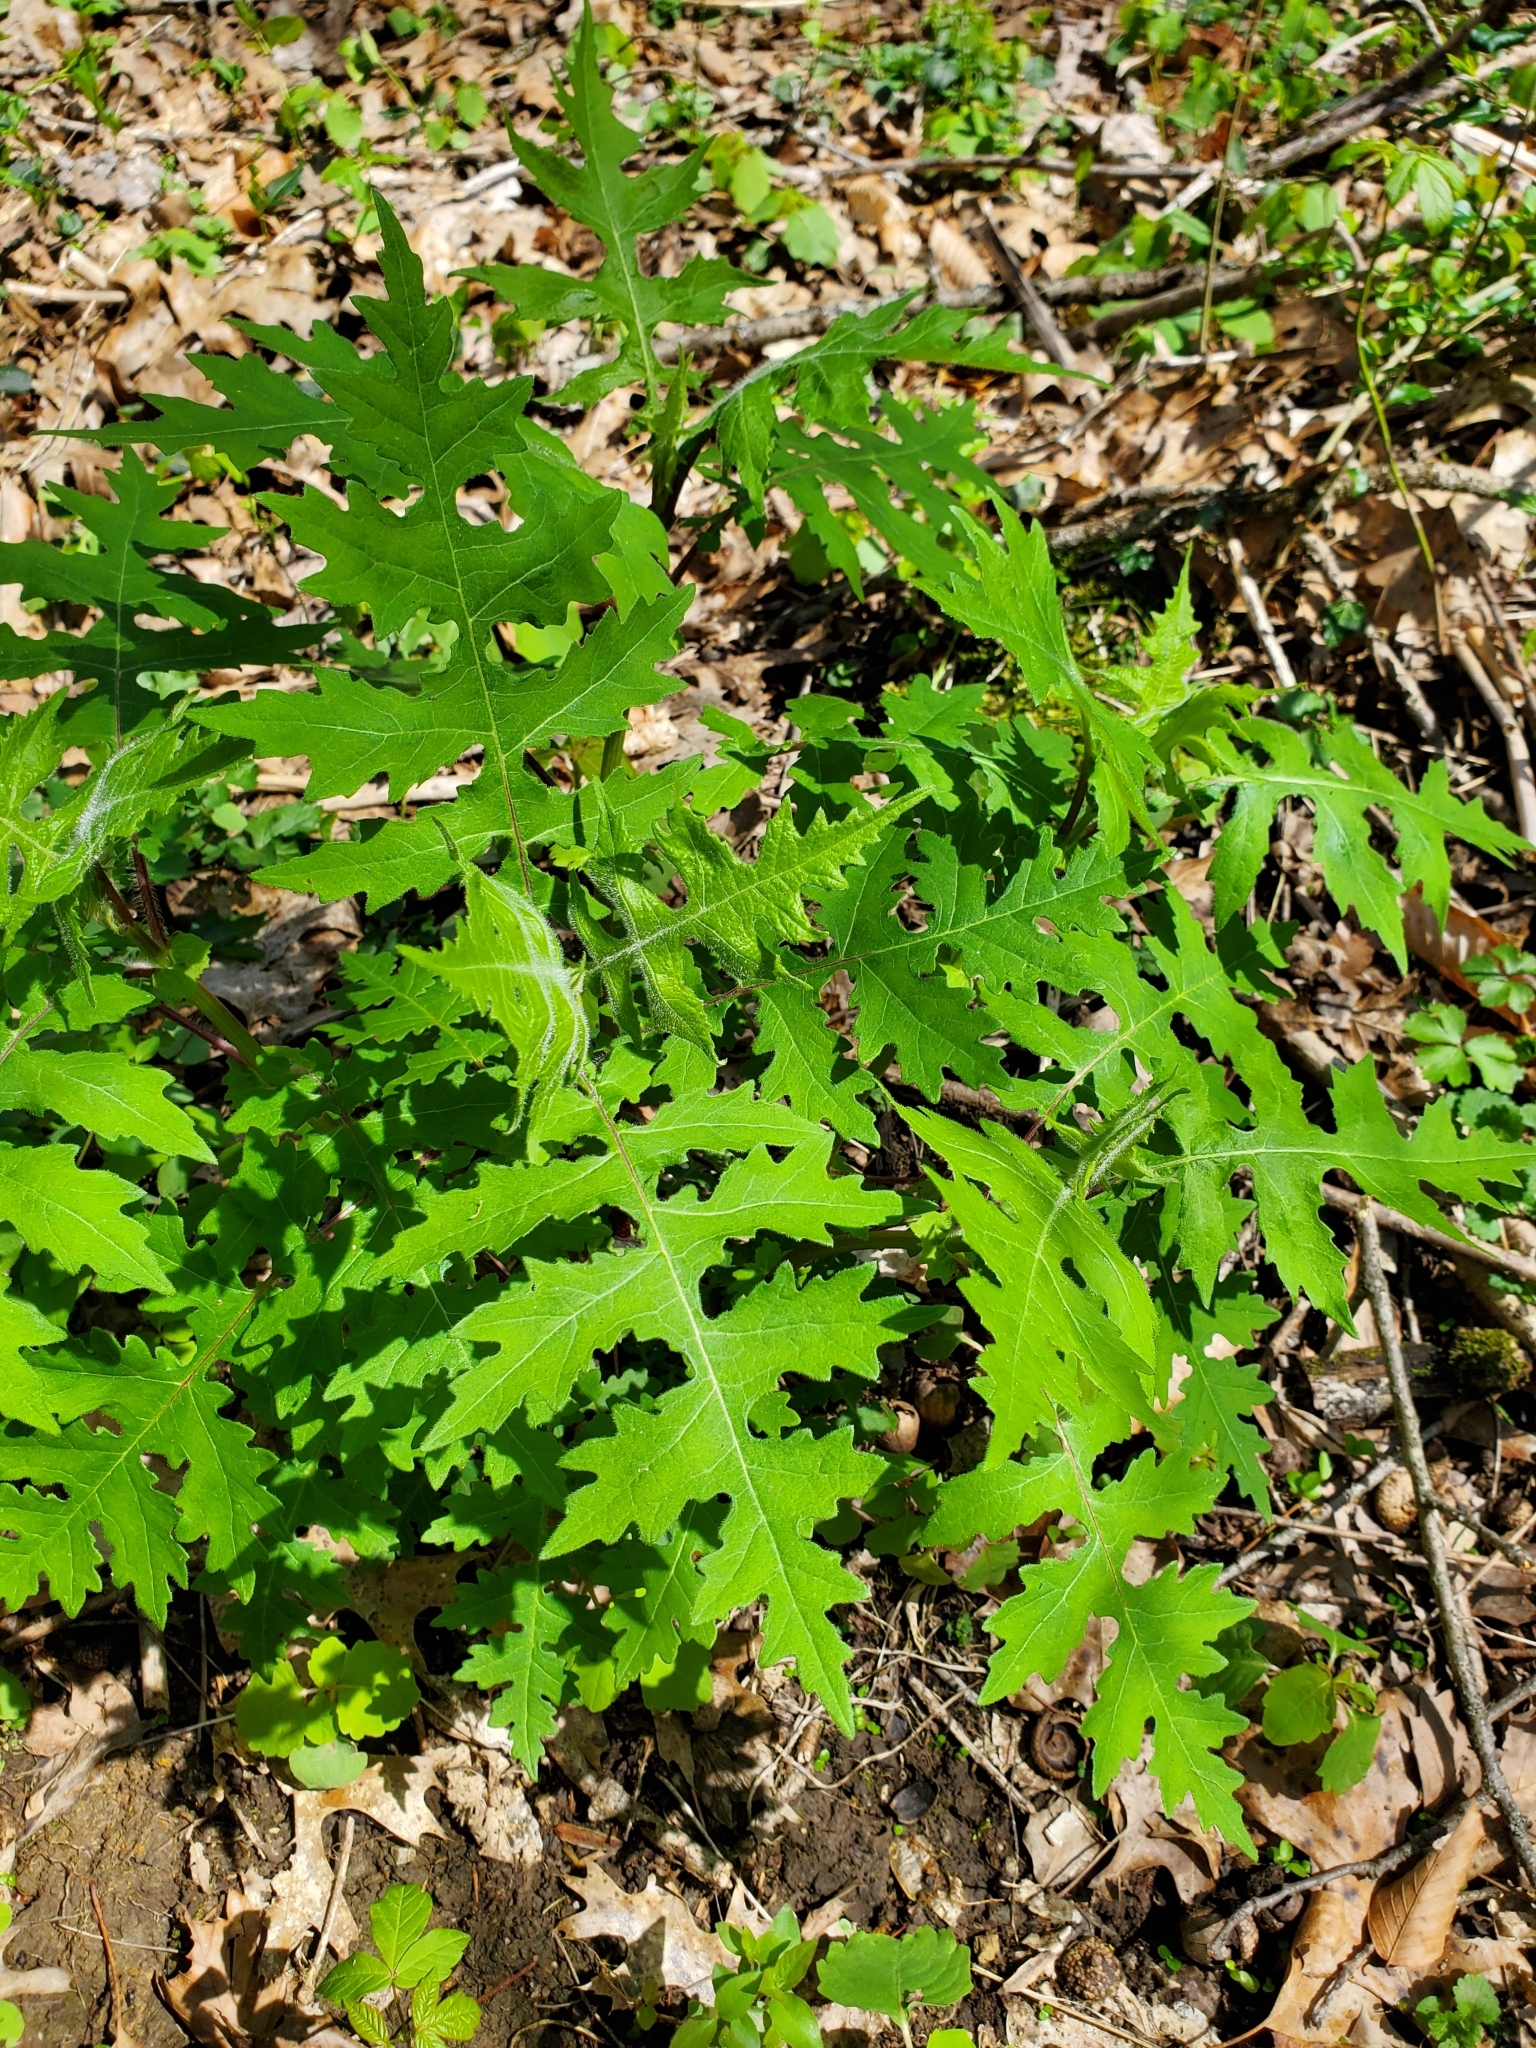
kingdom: Plantae
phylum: Tracheophyta
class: Magnoliopsida
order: Asterales
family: Asteraceae
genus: Polymnia
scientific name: Polymnia canadensis
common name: Pale-flowered leafcup
